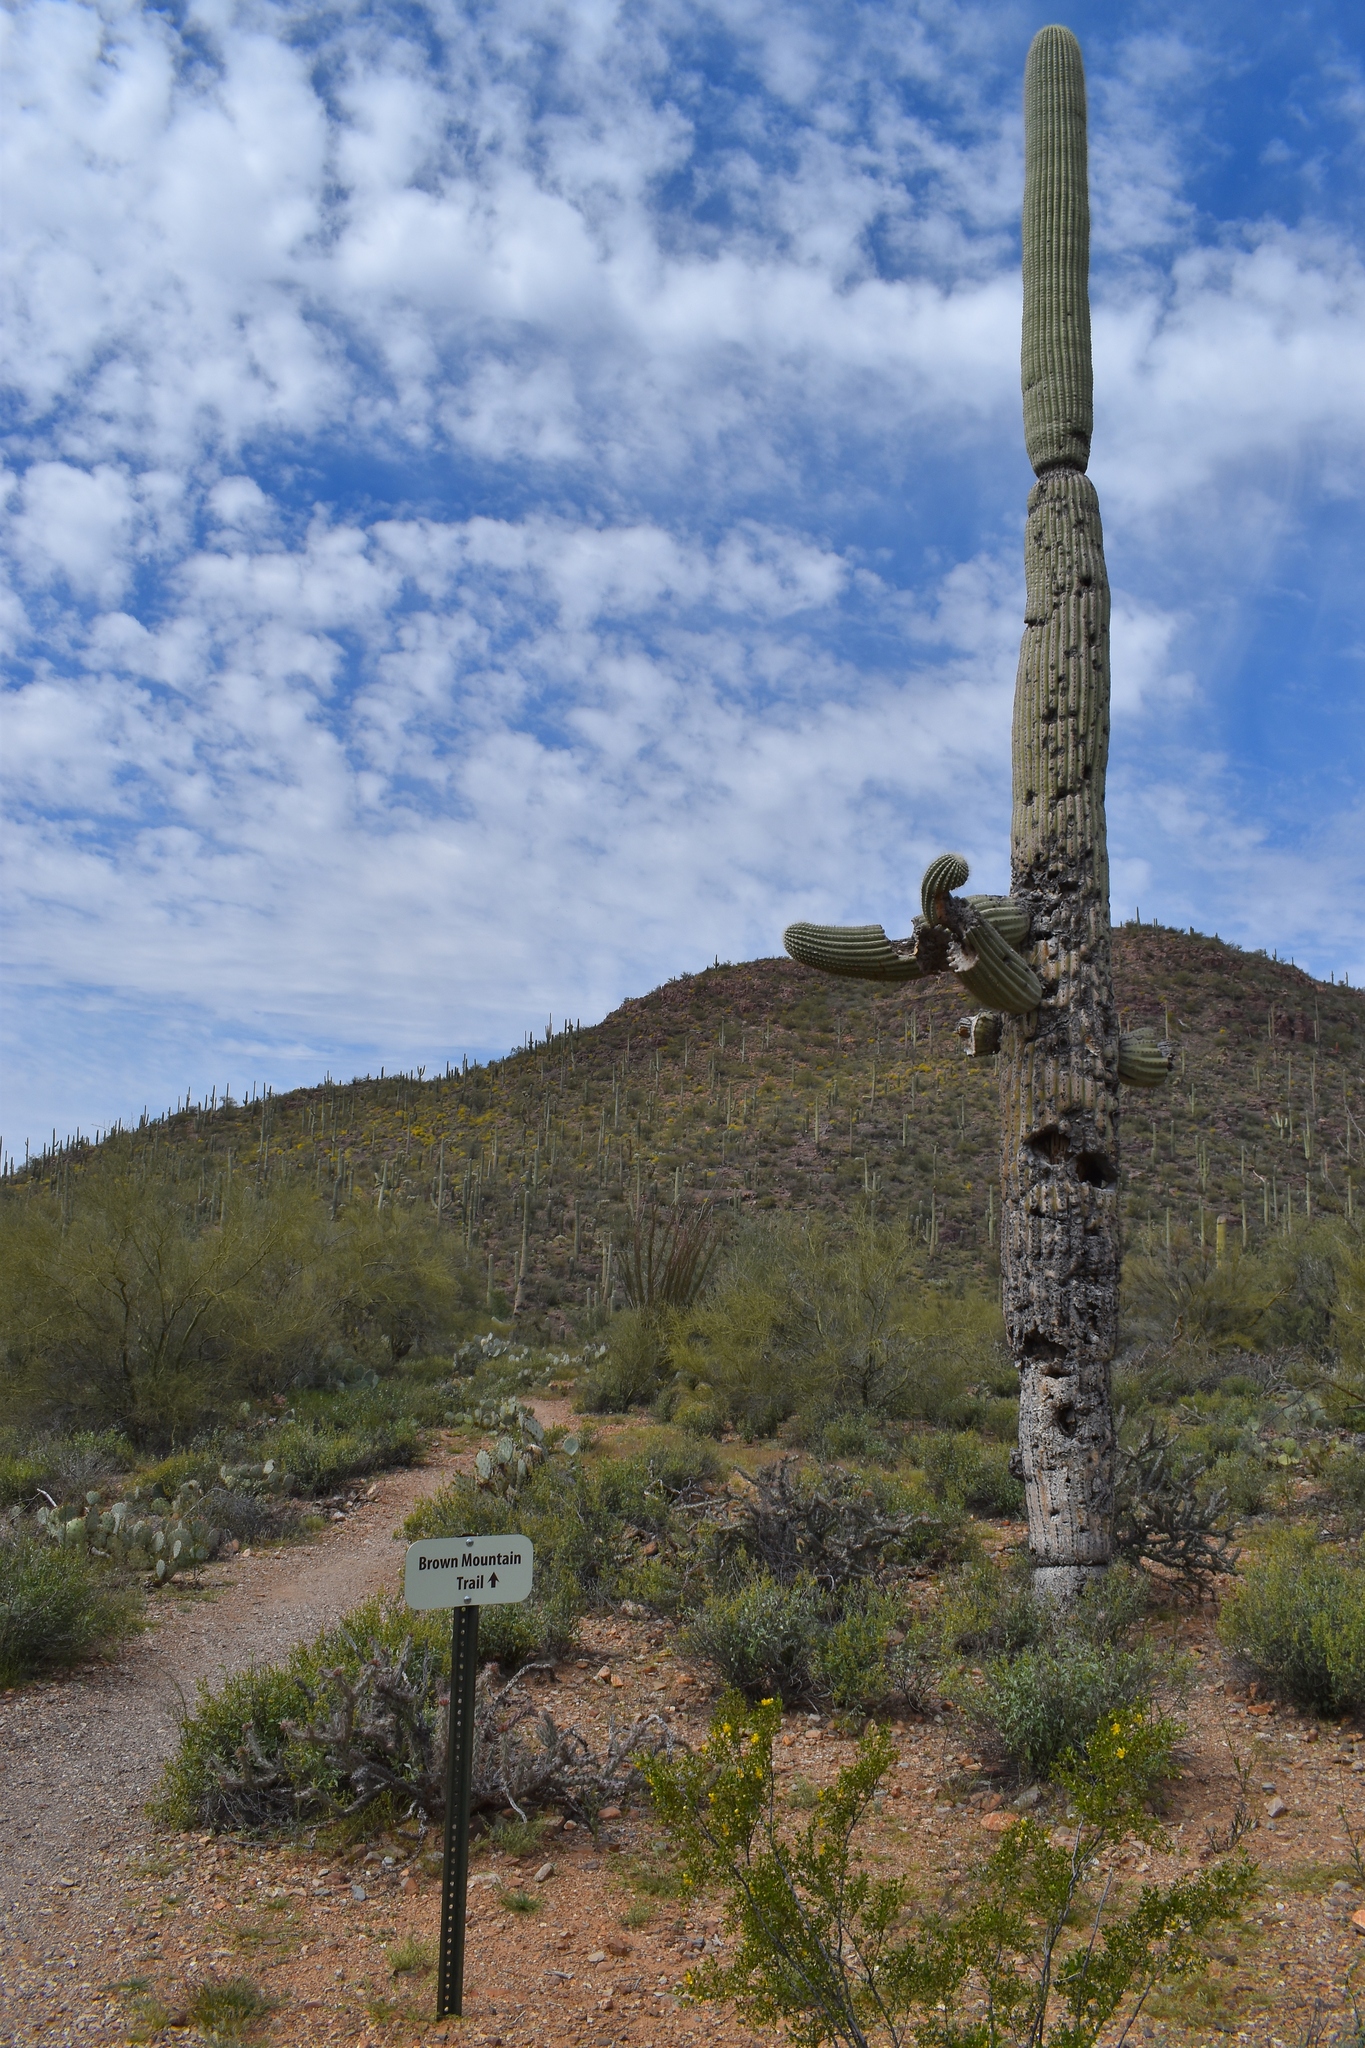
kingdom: Plantae
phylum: Tracheophyta
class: Magnoliopsida
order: Caryophyllales
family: Cactaceae
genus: Carnegiea
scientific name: Carnegiea gigantea
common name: Saguaro
